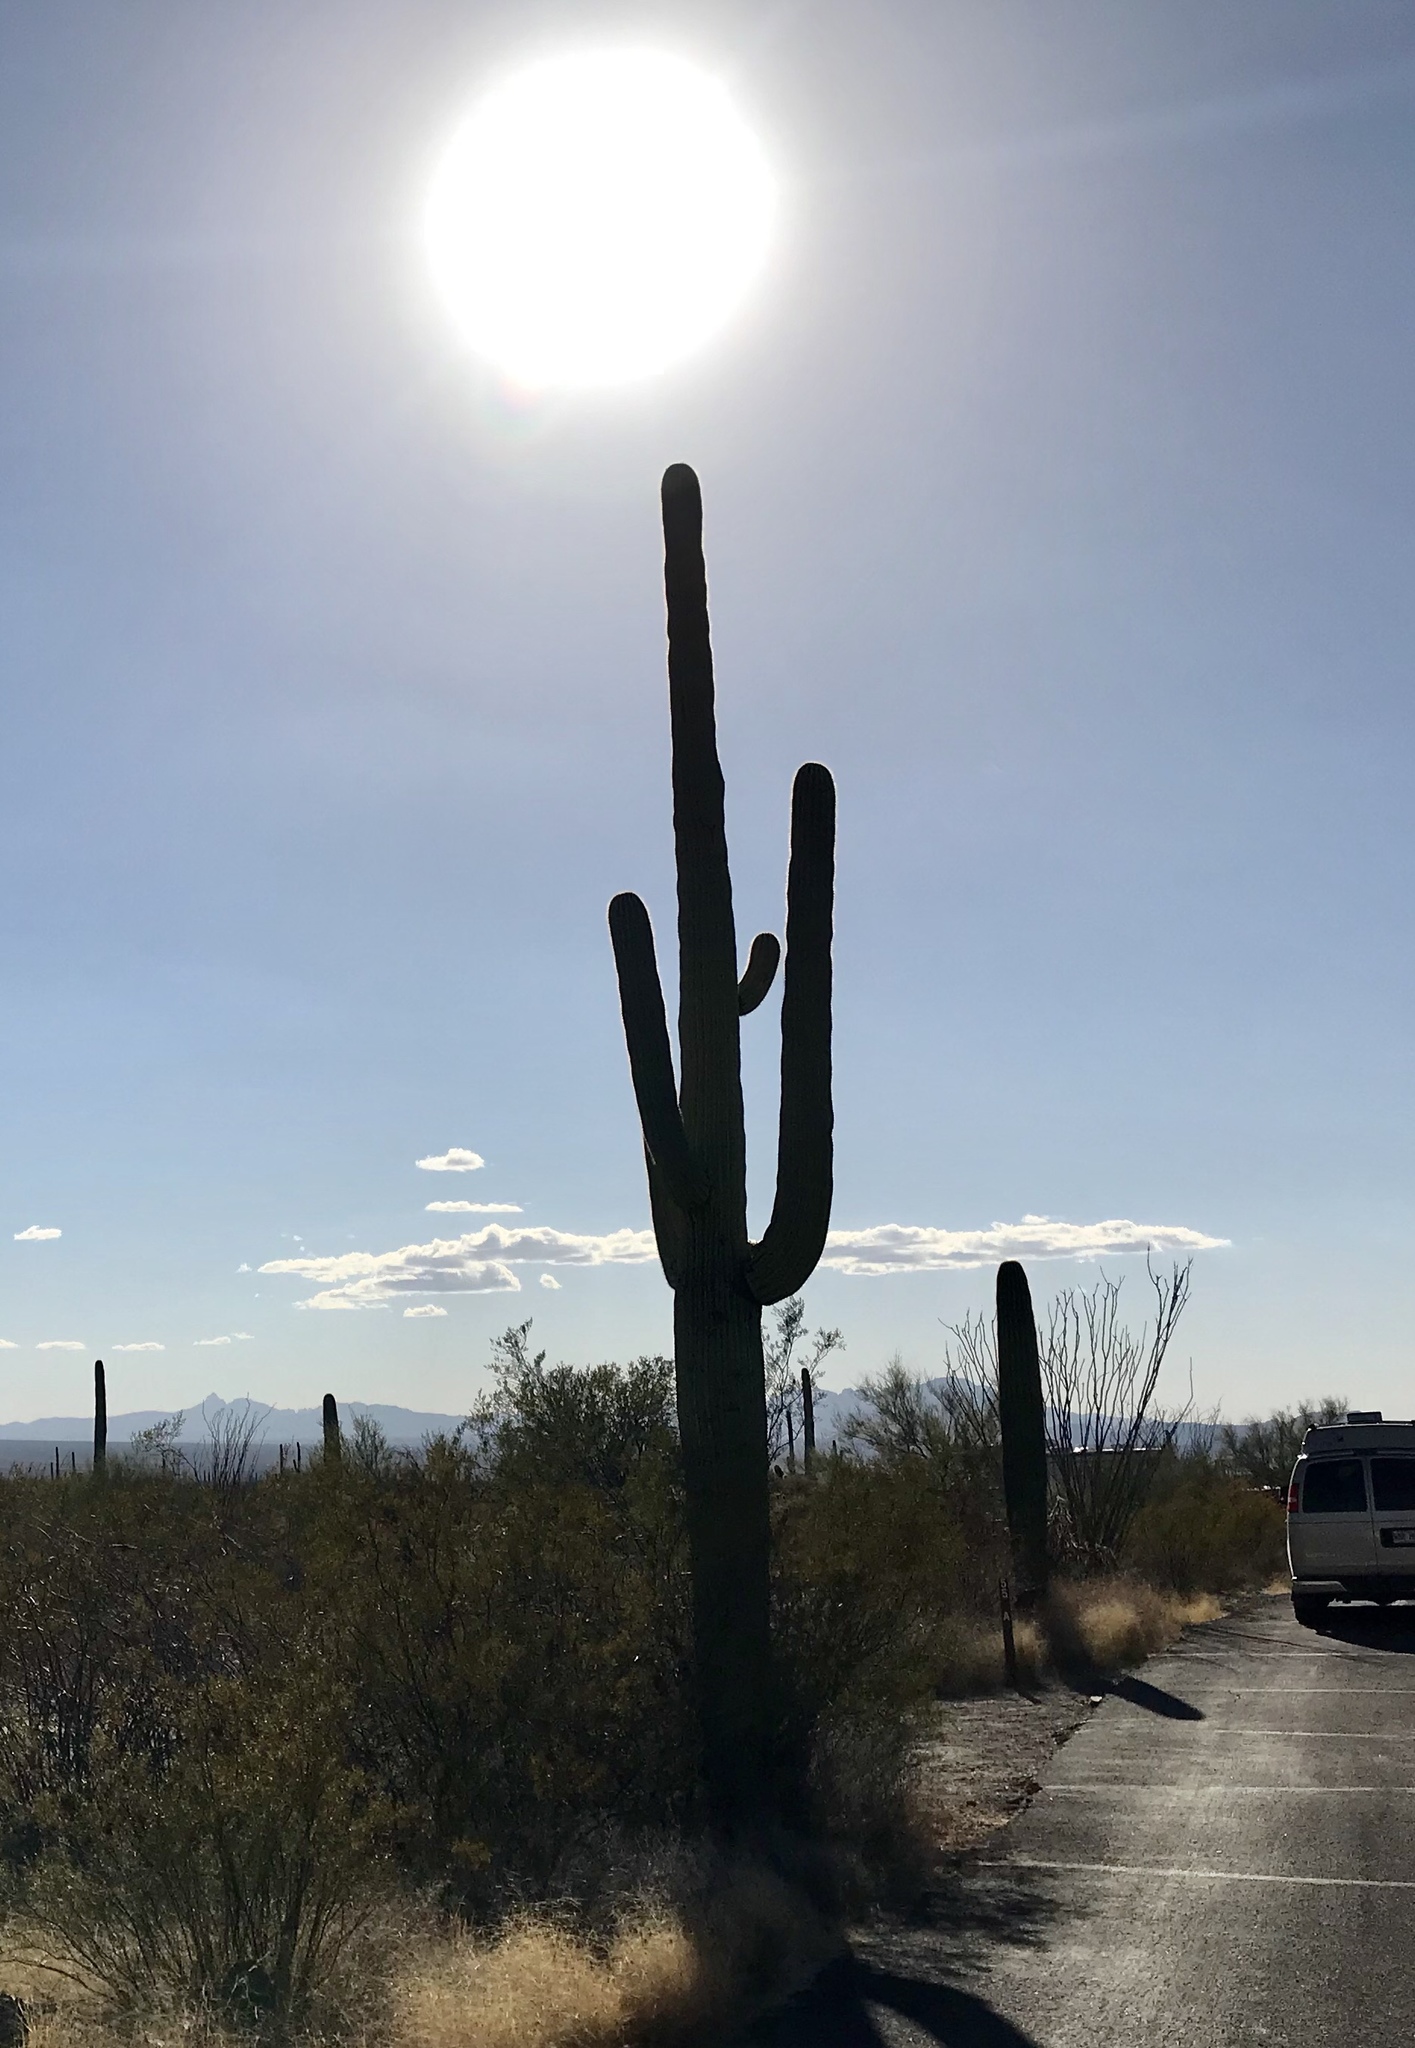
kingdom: Plantae
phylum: Tracheophyta
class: Magnoliopsida
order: Caryophyllales
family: Cactaceae
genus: Carnegiea
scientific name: Carnegiea gigantea
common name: Saguaro
